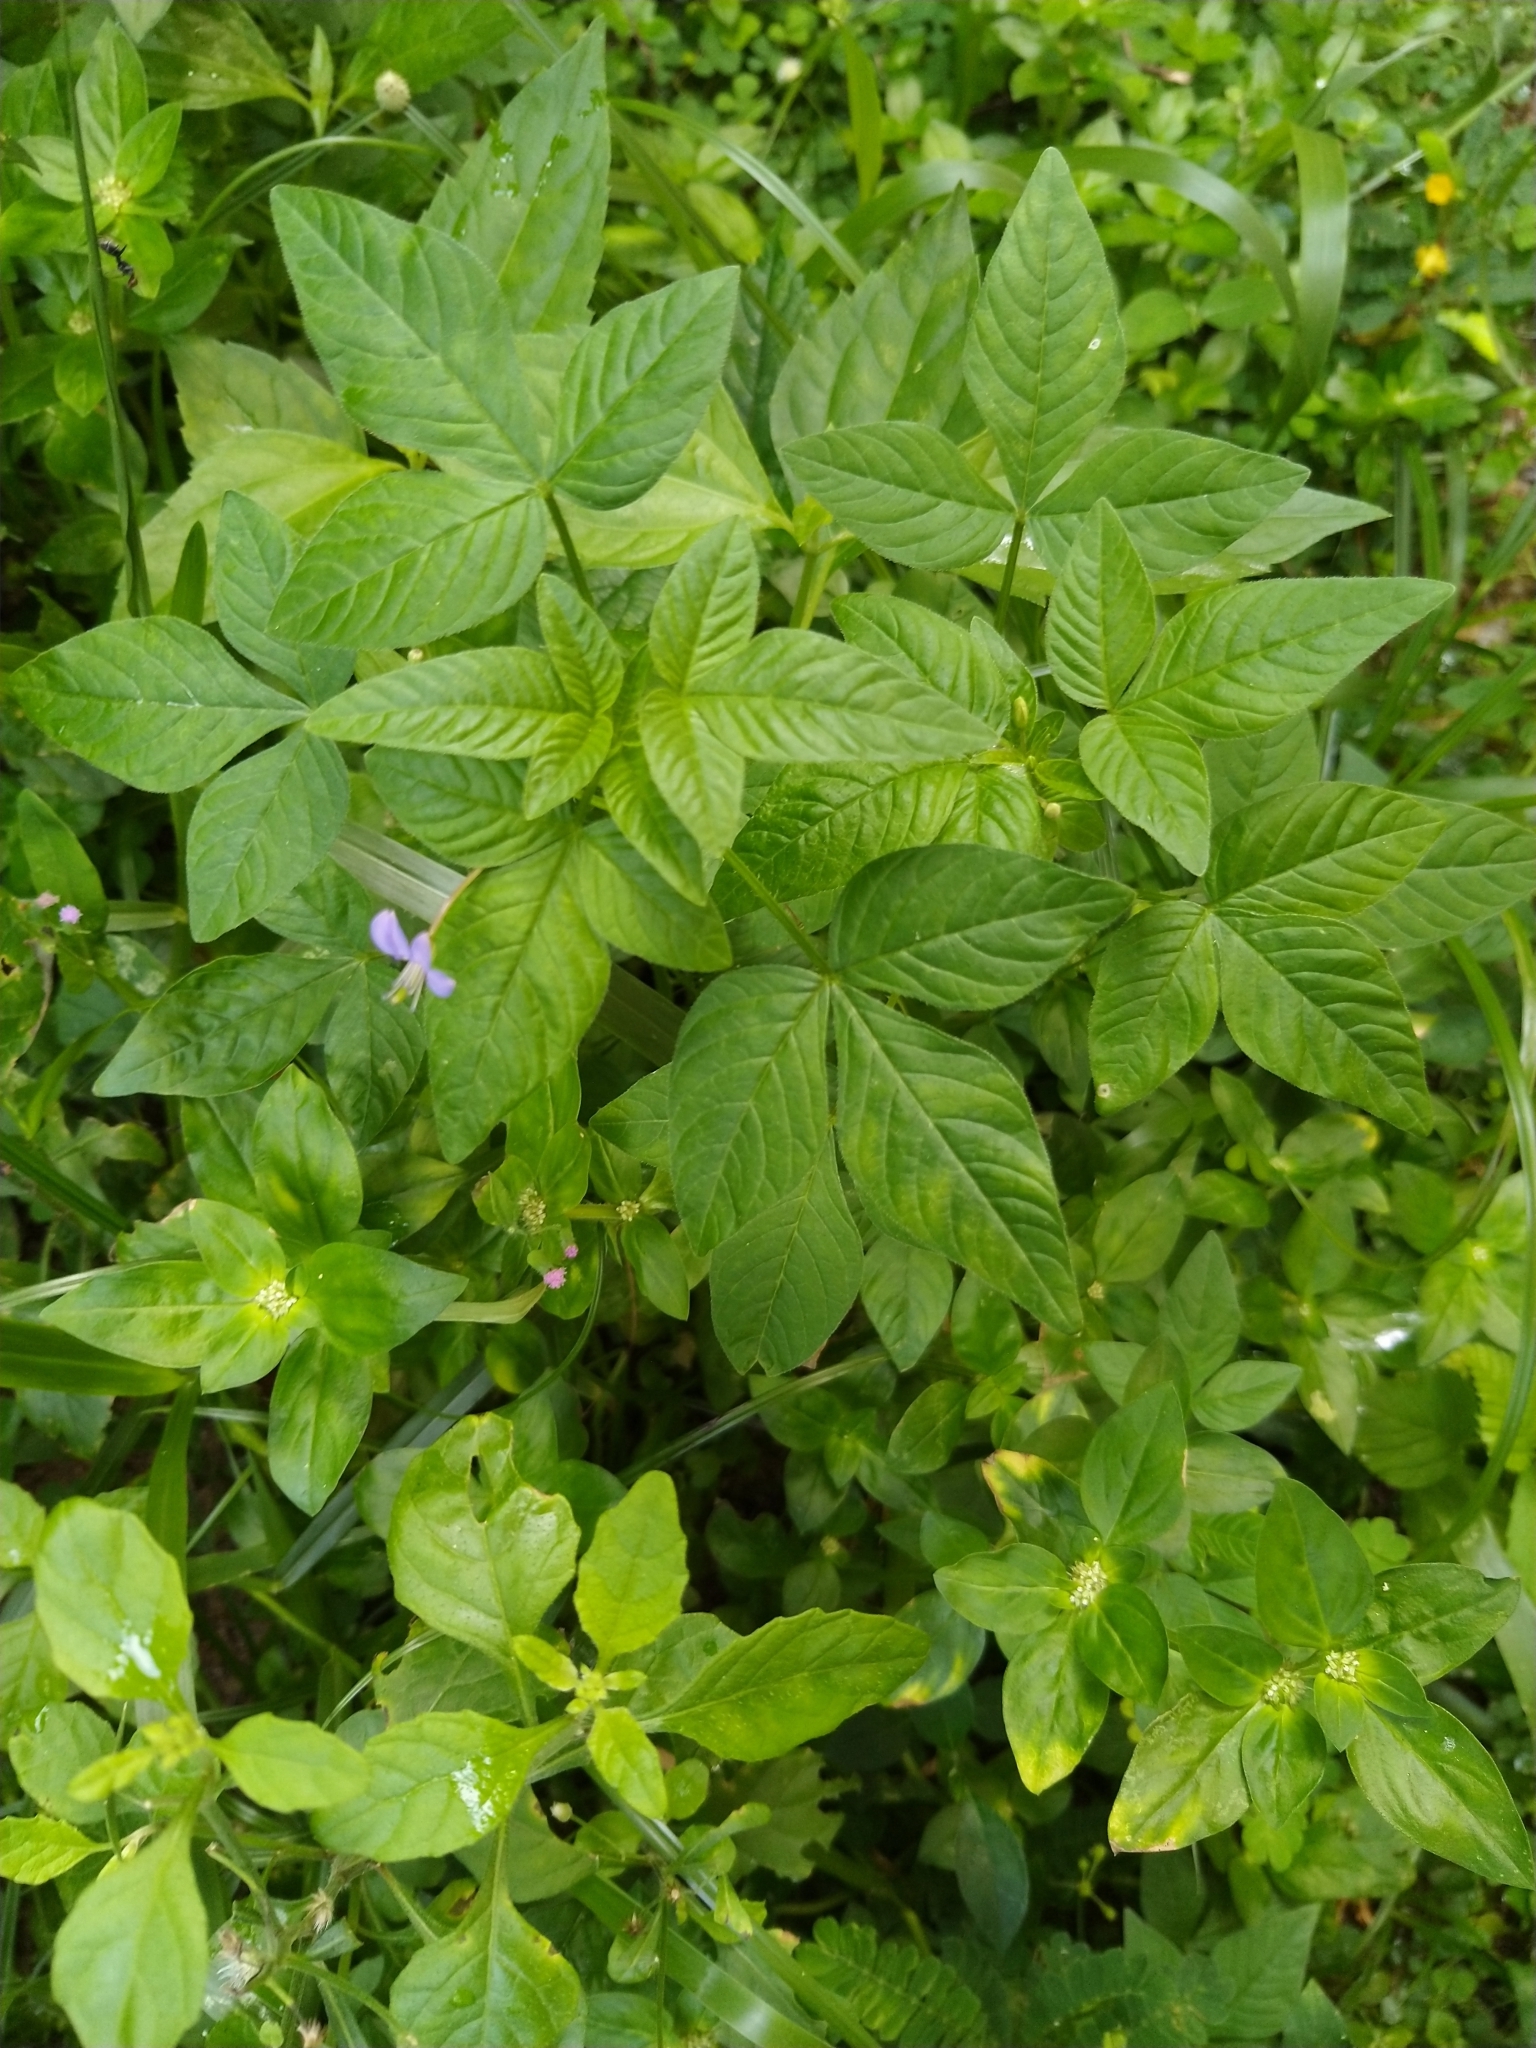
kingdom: Plantae
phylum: Tracheophyta
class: Magnoliopsida
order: Brassicales
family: Cleomaceae
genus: Sieruela
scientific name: Sieruela rutidosperma
